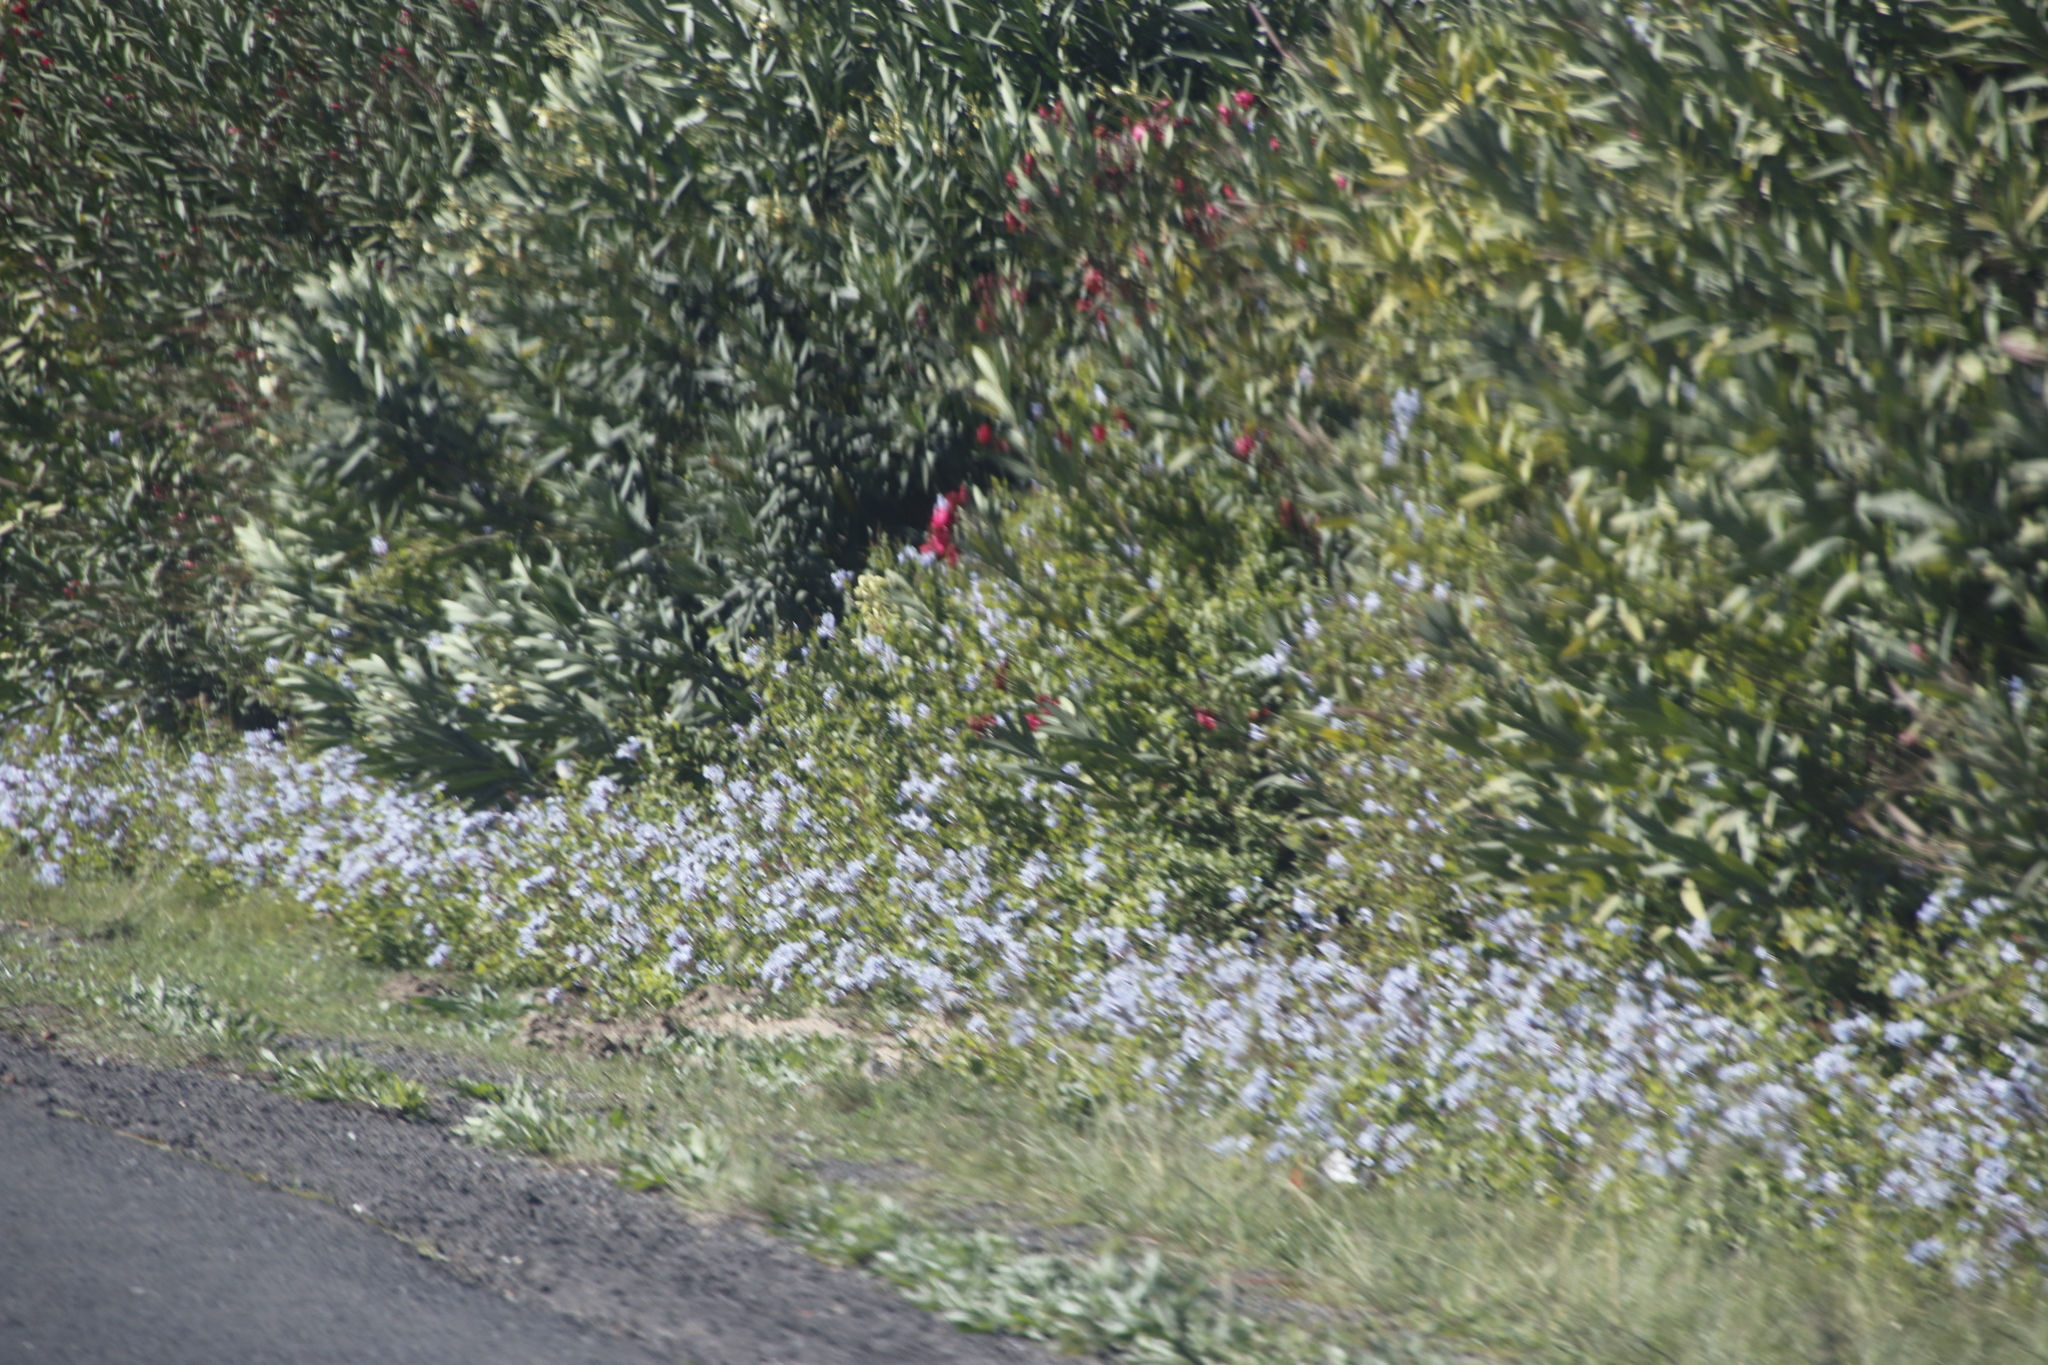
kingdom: Plantae
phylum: Tracheophyta
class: Magnoliopsida
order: Caryophyllales
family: Plumbaginaceae
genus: Plumbago
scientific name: Plumbago auriculata
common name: Cape leadwort
